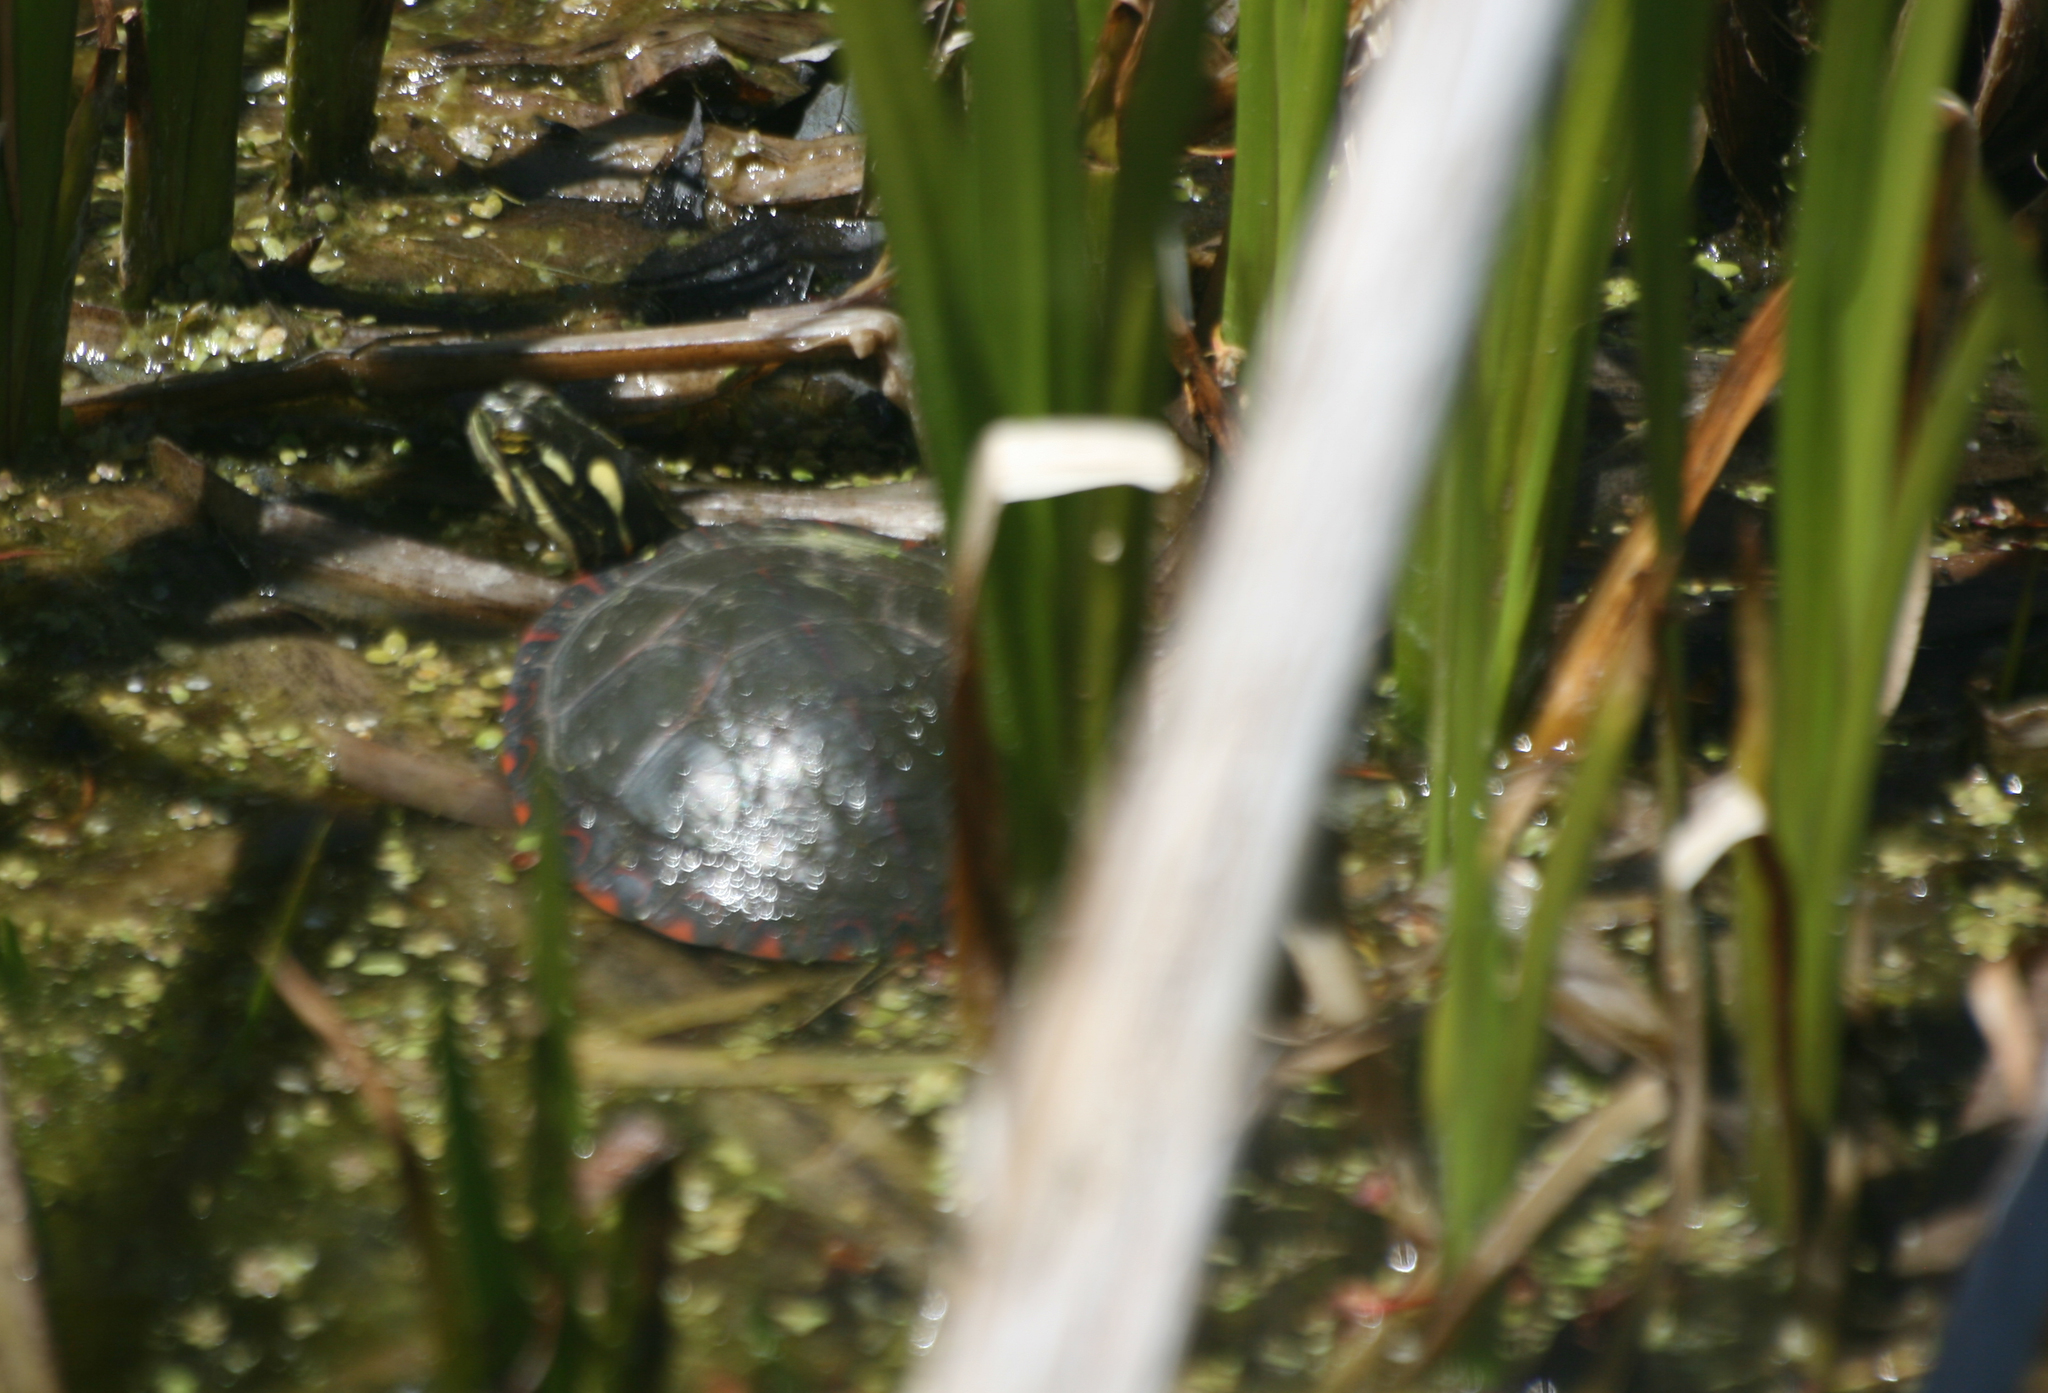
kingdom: Animalia
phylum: Chordata
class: Testudines
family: Emydidae
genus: Chrysemys
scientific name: Chrysemys picta
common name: Painted turtle
